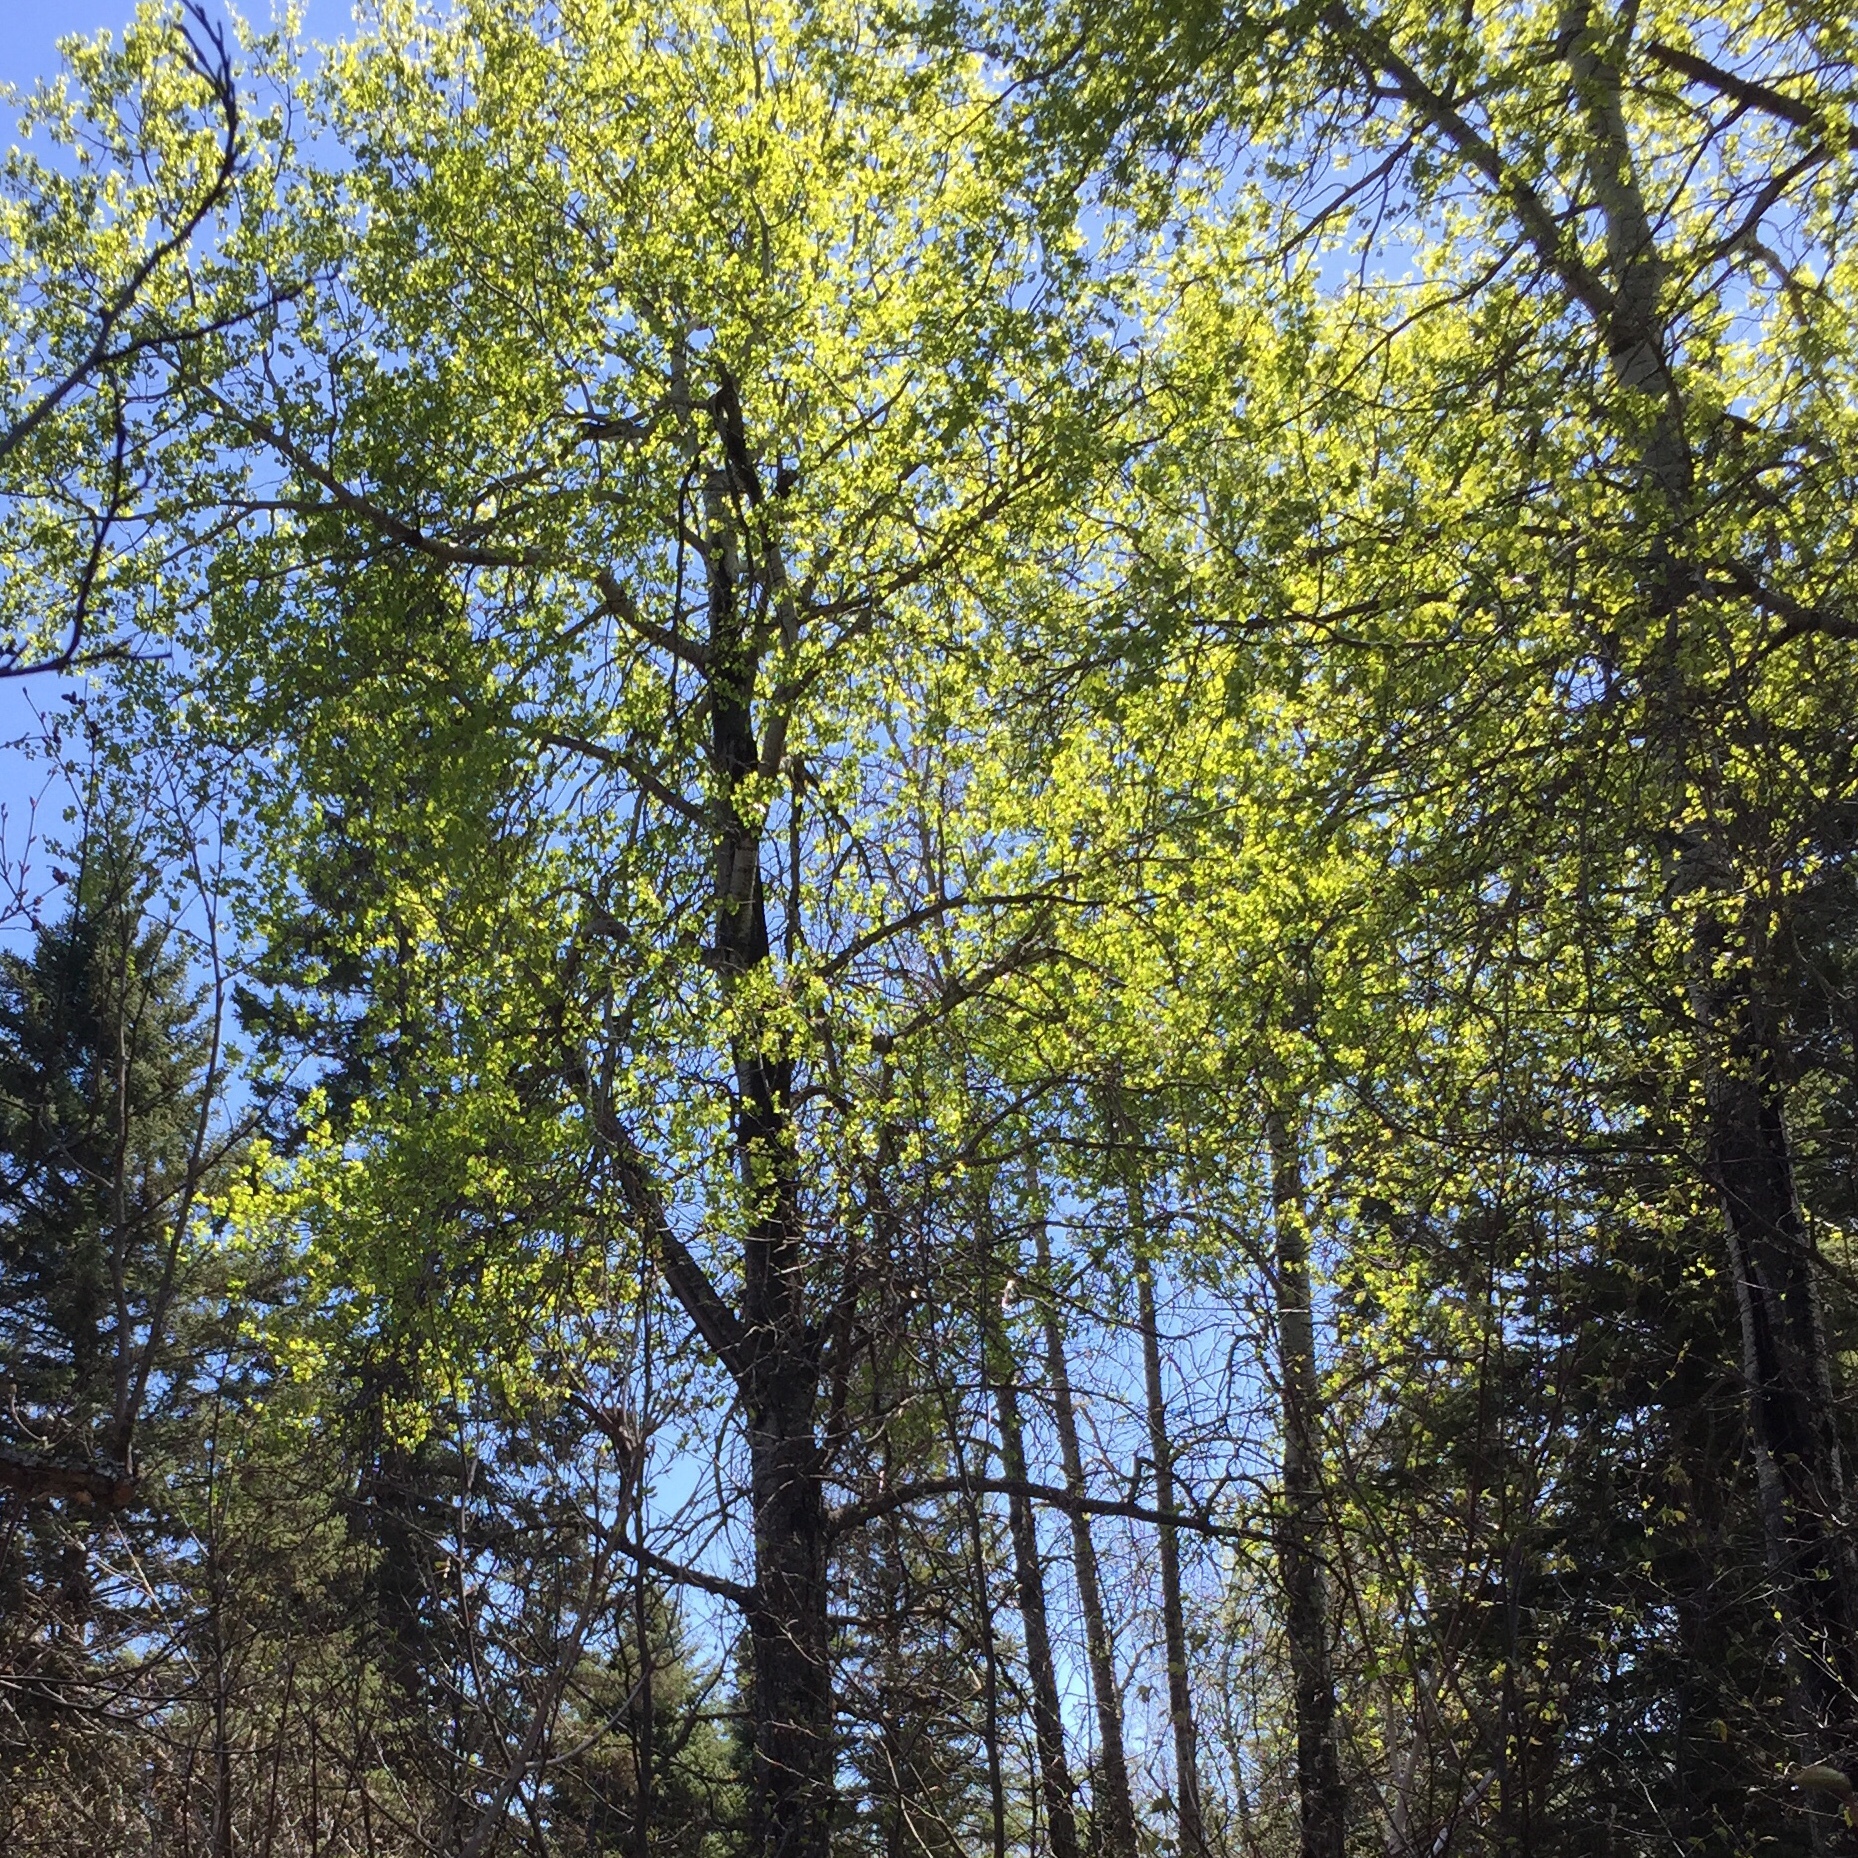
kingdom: Plantae
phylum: Tracheophyta
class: Magnoliopsida
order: Malpighiales
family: Salicaceae
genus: Populus
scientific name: Populus tremuloides
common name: Quaking aspen
